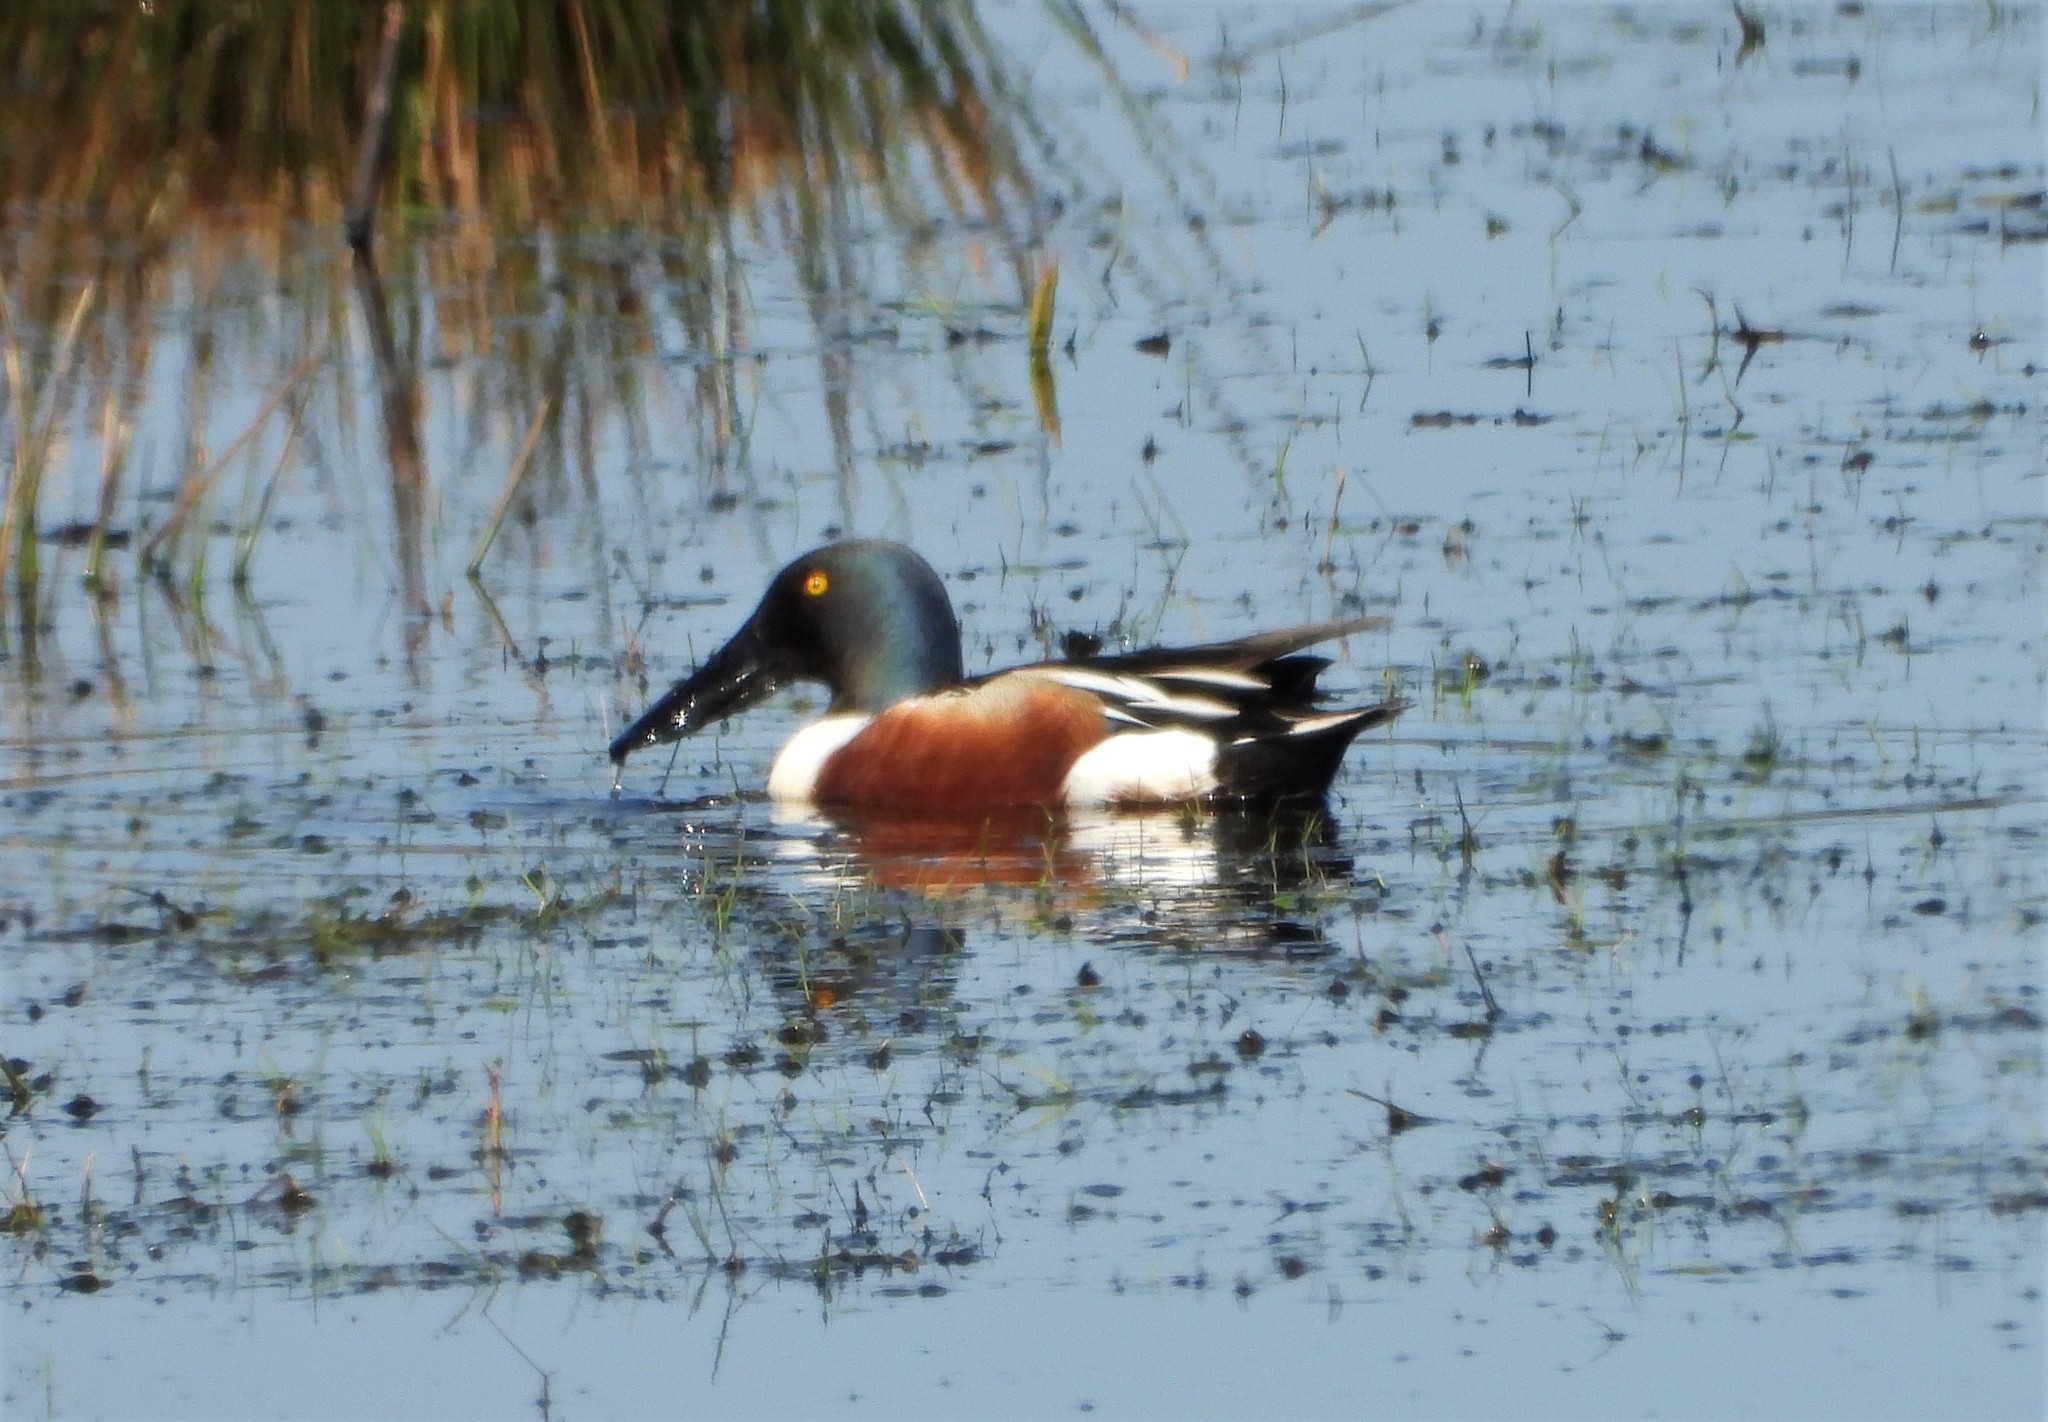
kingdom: Animalia
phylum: Chordata
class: Aves
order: Anseriformes
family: Anatidae
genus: Spatula
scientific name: Spatula clypeata
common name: Northern shoveler
